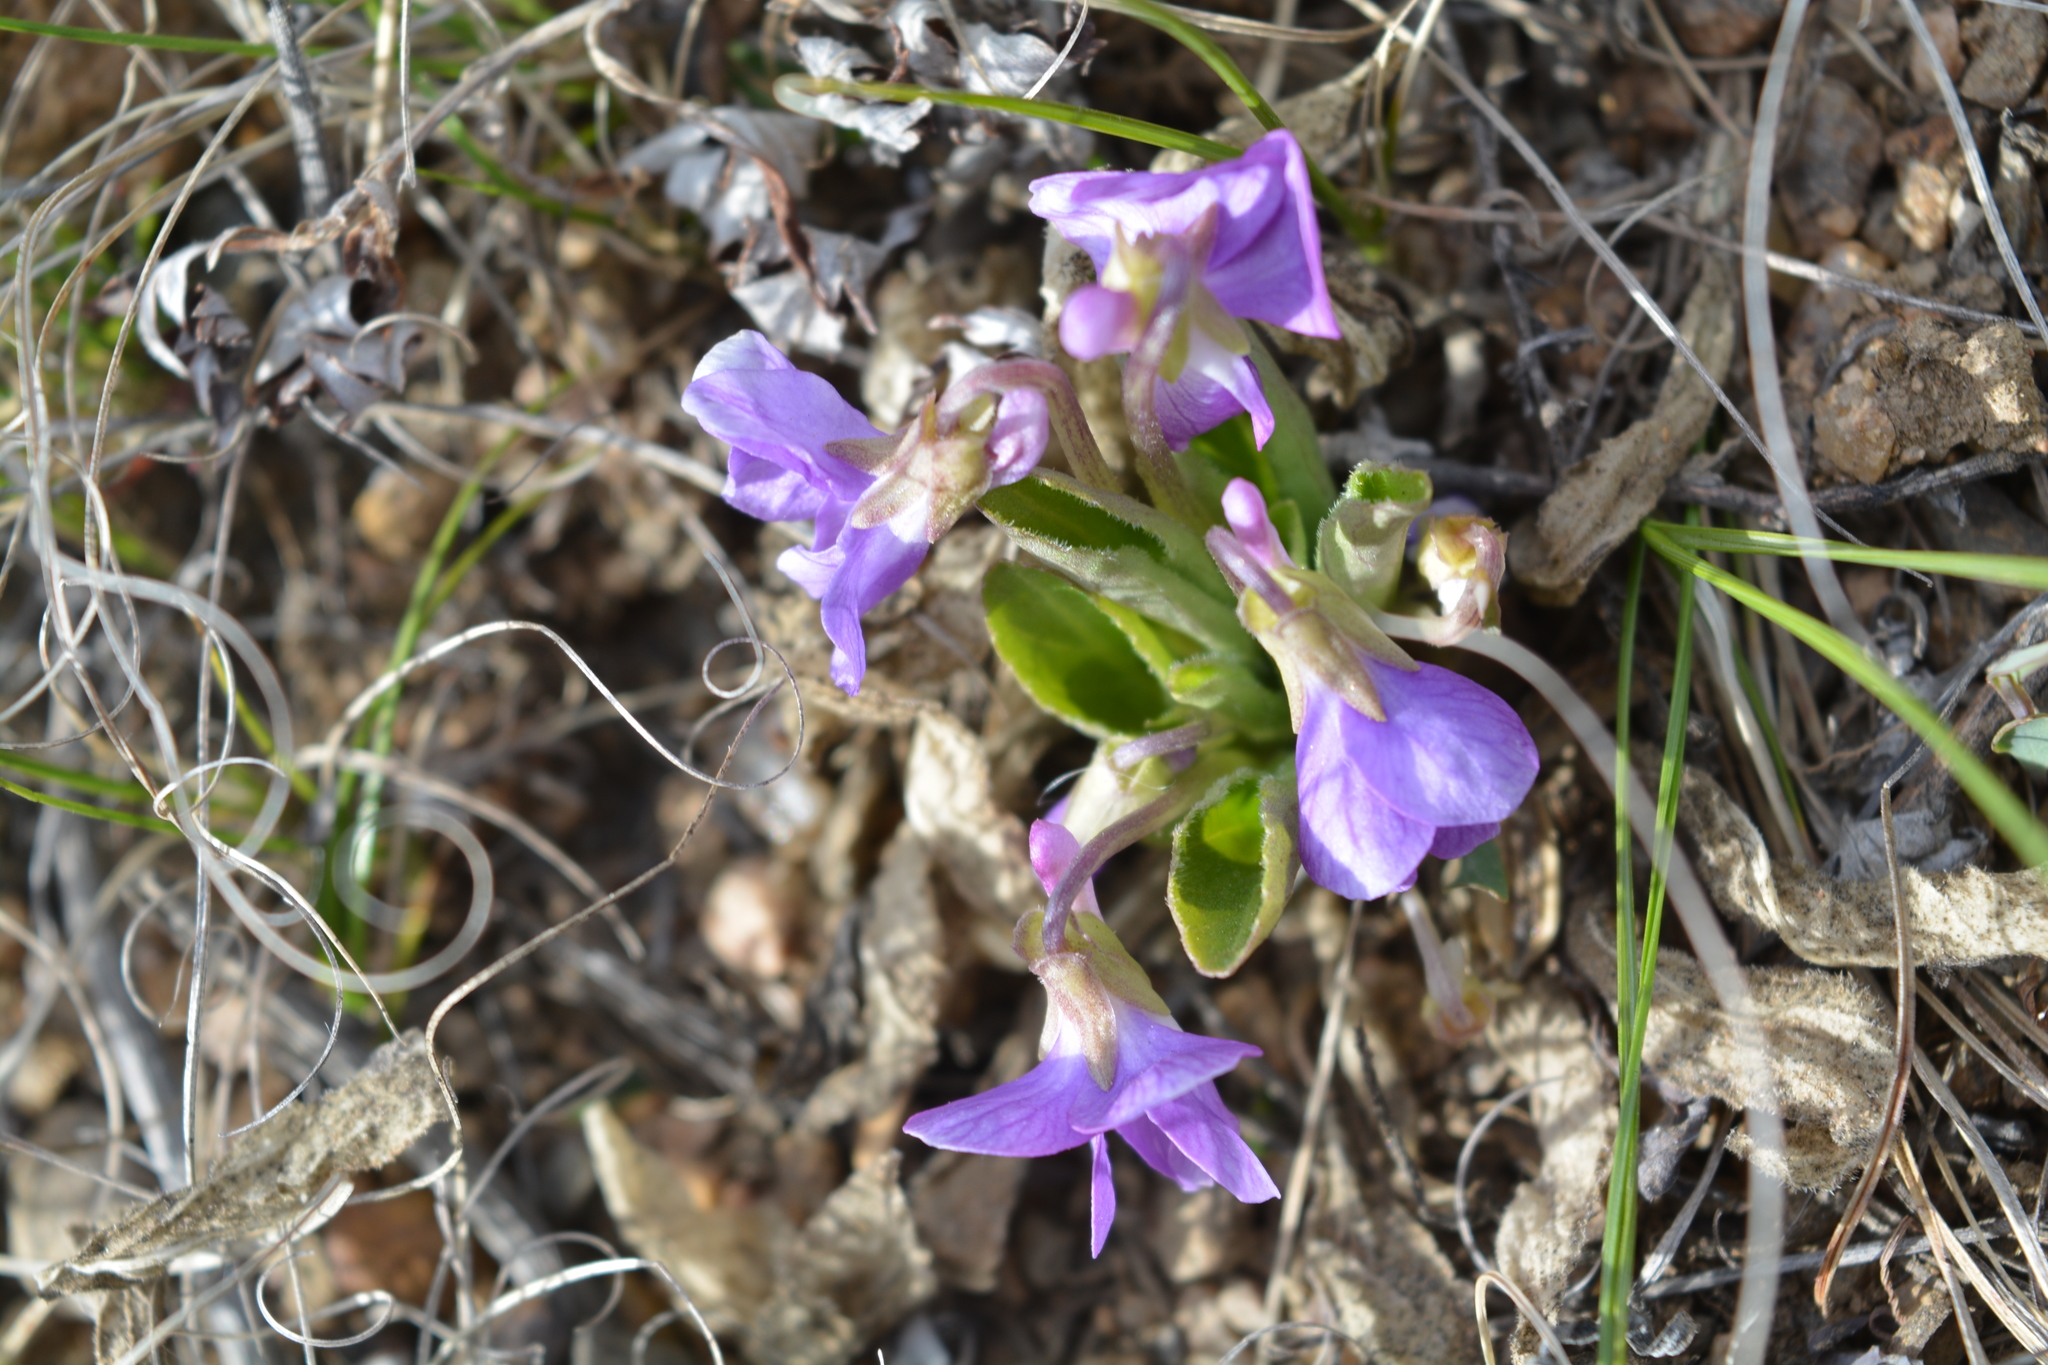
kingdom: Plantae
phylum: Tracheophyta
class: Magnoliopsida
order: Malpighiales
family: Violaceae
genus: Viola
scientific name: Viola gmeliniana
